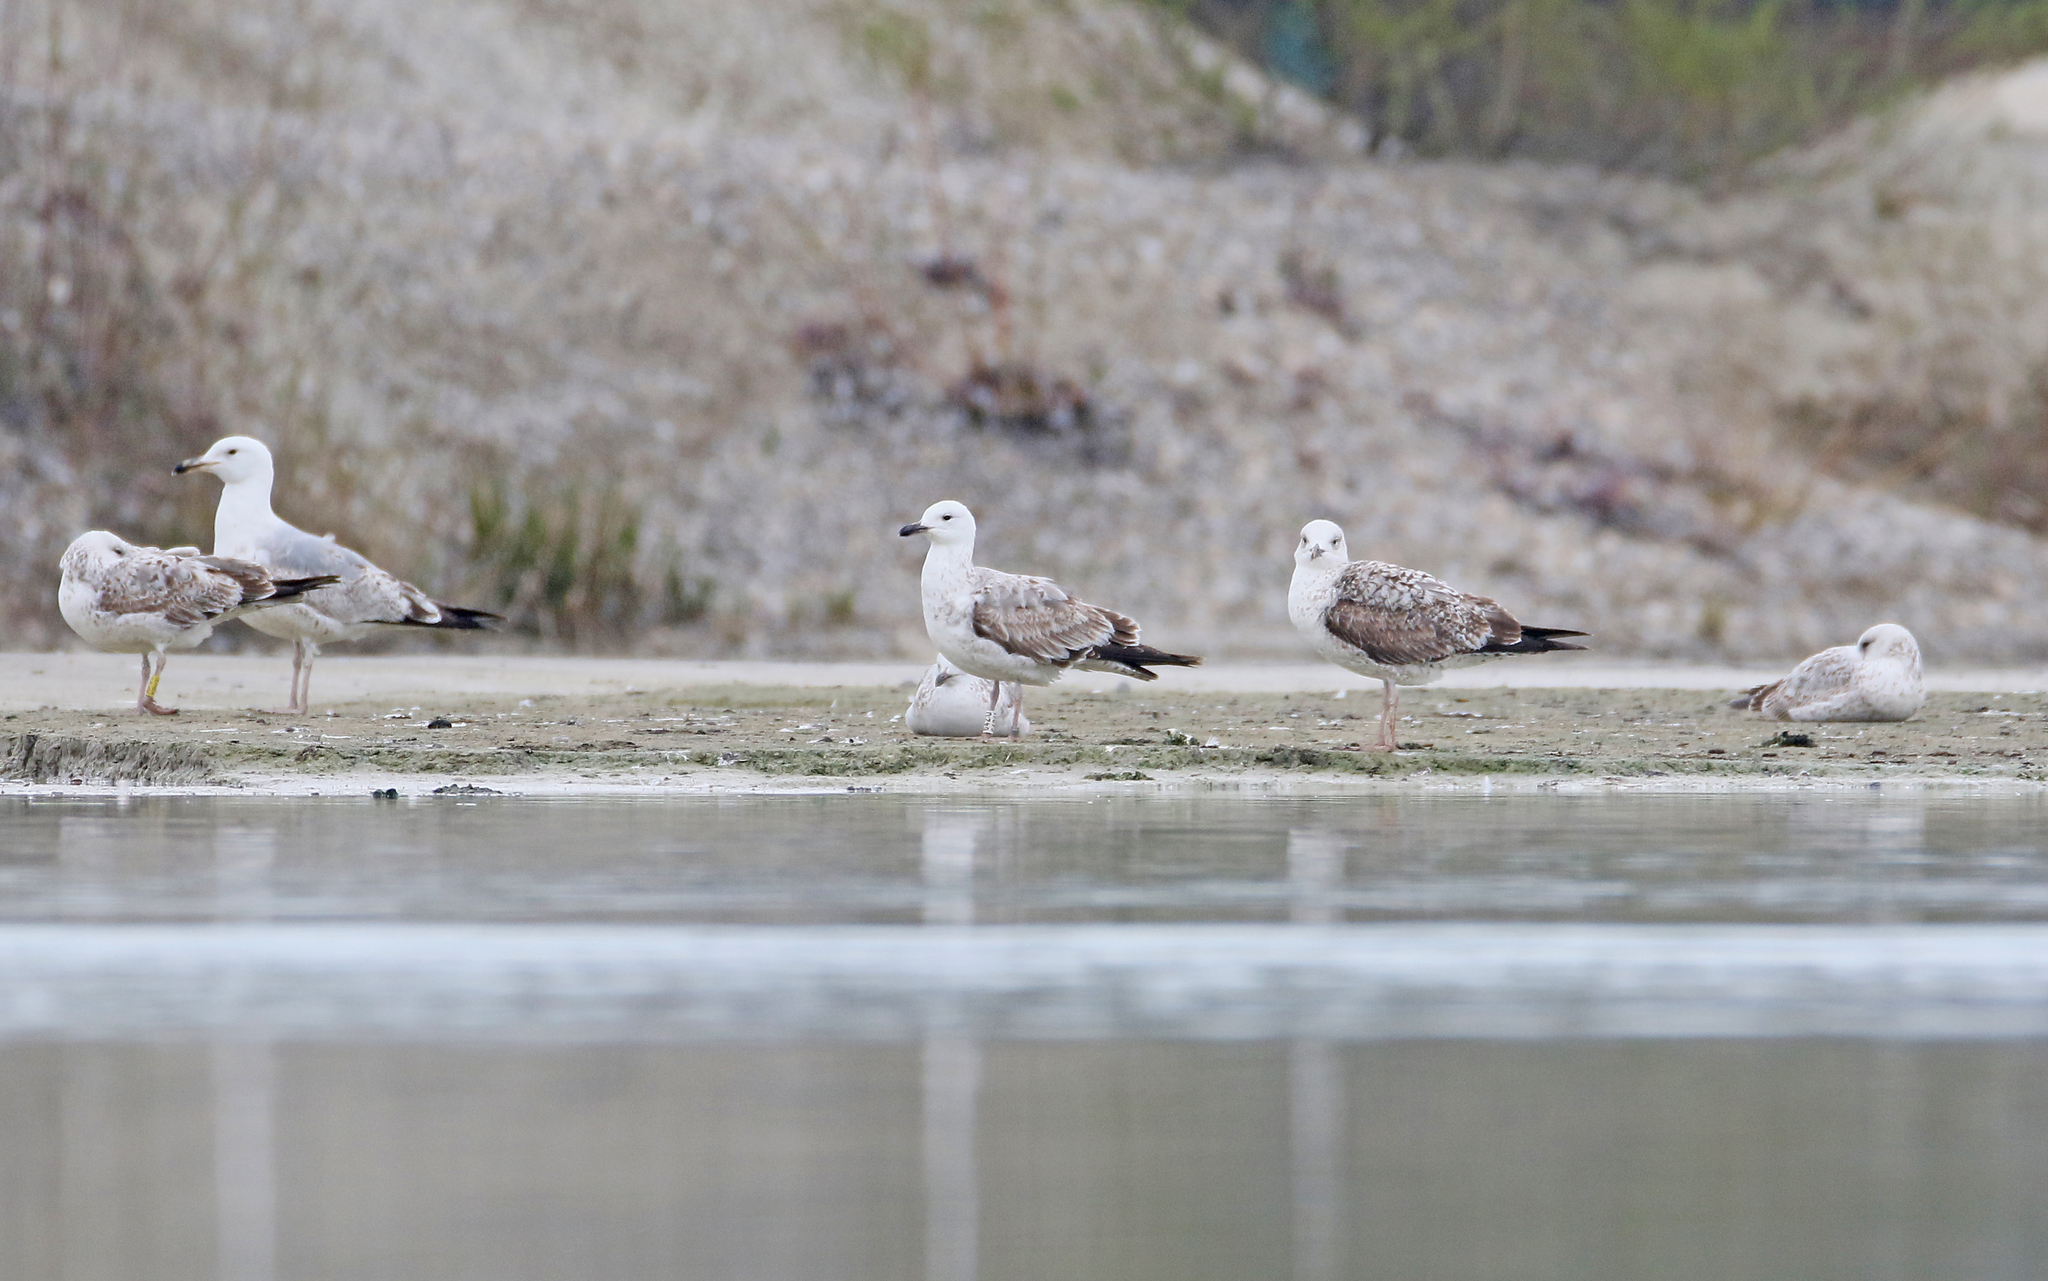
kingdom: Animalia
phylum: Chordata
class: Aves
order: Charadriiformes
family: Laridae
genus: Larus
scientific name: Larus cachinnans
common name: Caspian gull
